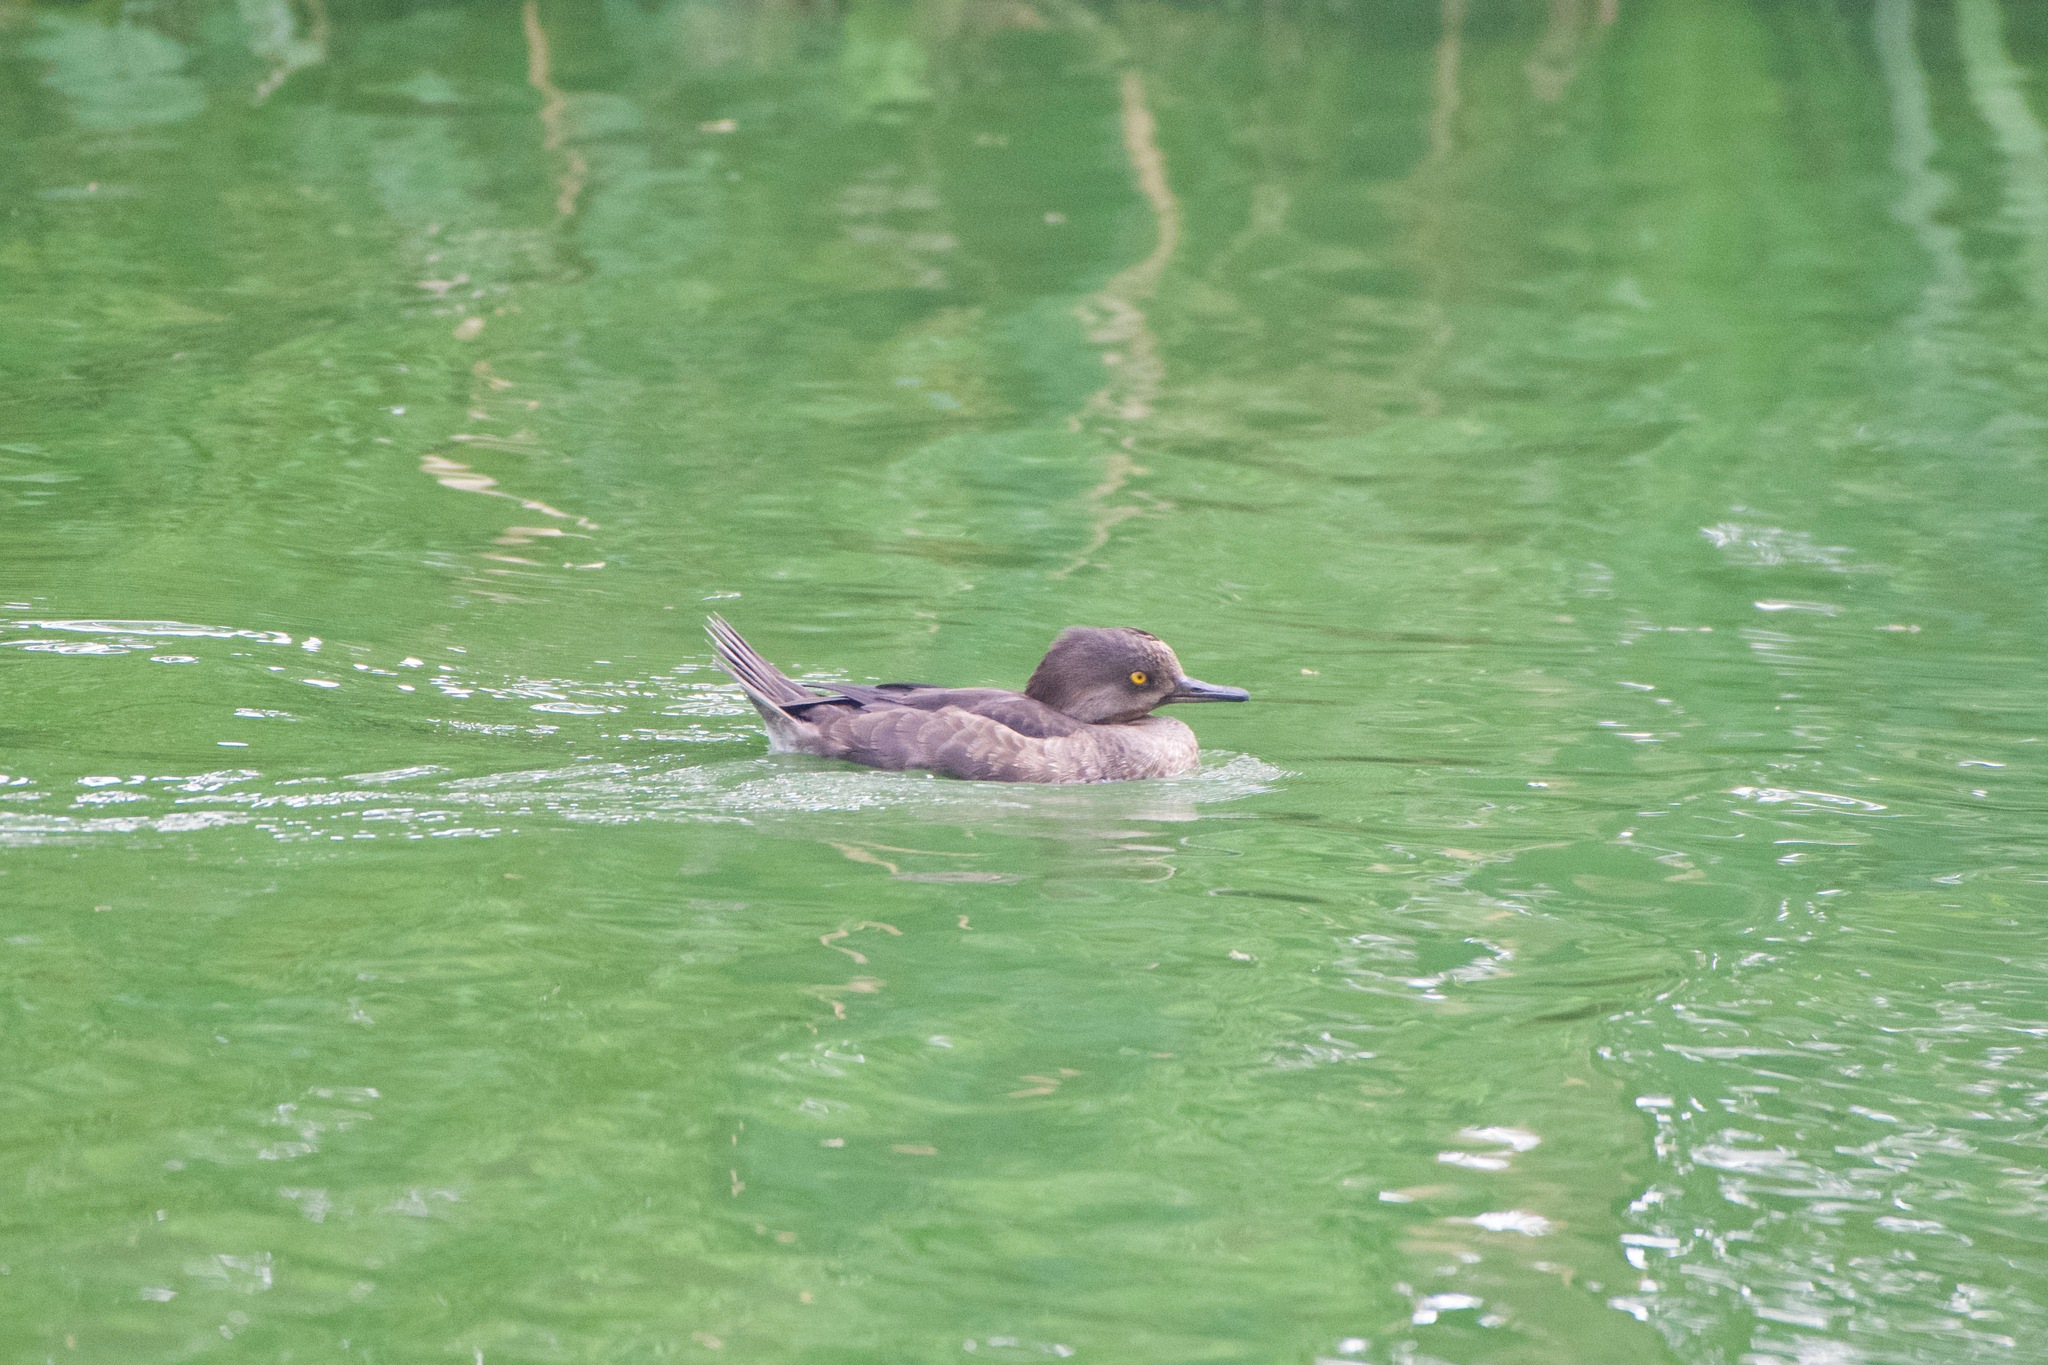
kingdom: Animalia
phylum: Chordata
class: Aves
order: Anseriformes
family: Anatidae
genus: Lophodytes
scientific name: Lophodytes cucullatus
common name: Hooded merganser
